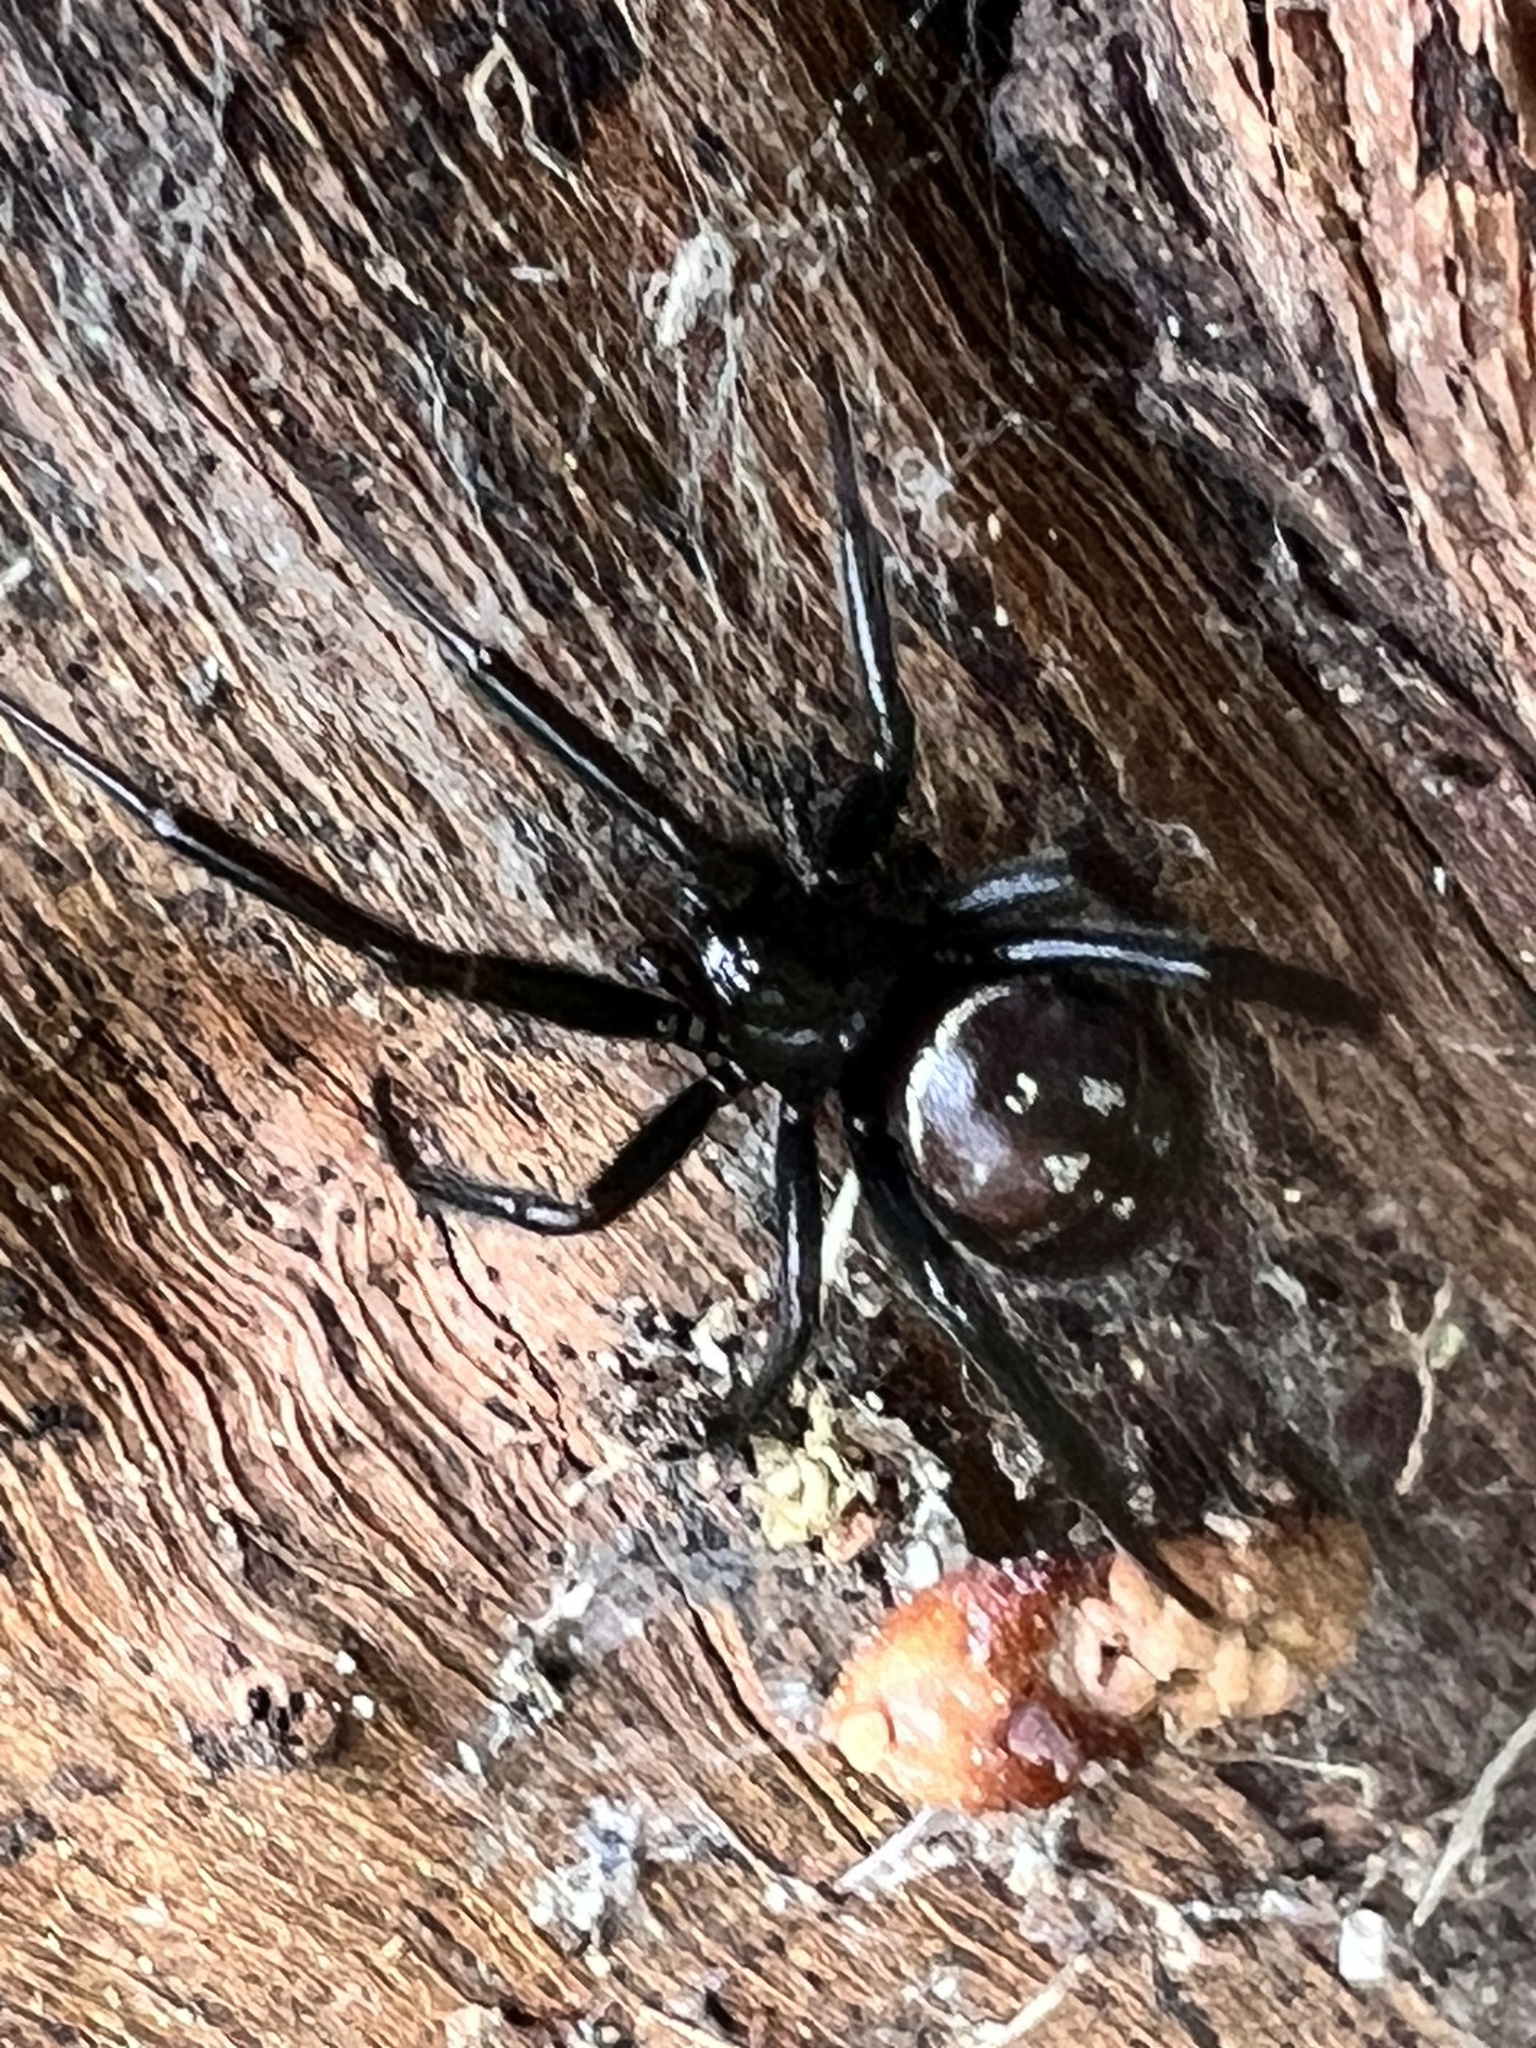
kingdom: Animalia
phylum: Arthropoda
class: Arachnida
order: Araneae
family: Theridiidae
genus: Steatoda
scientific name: Steatoda capensis
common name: Cobweb weaver
